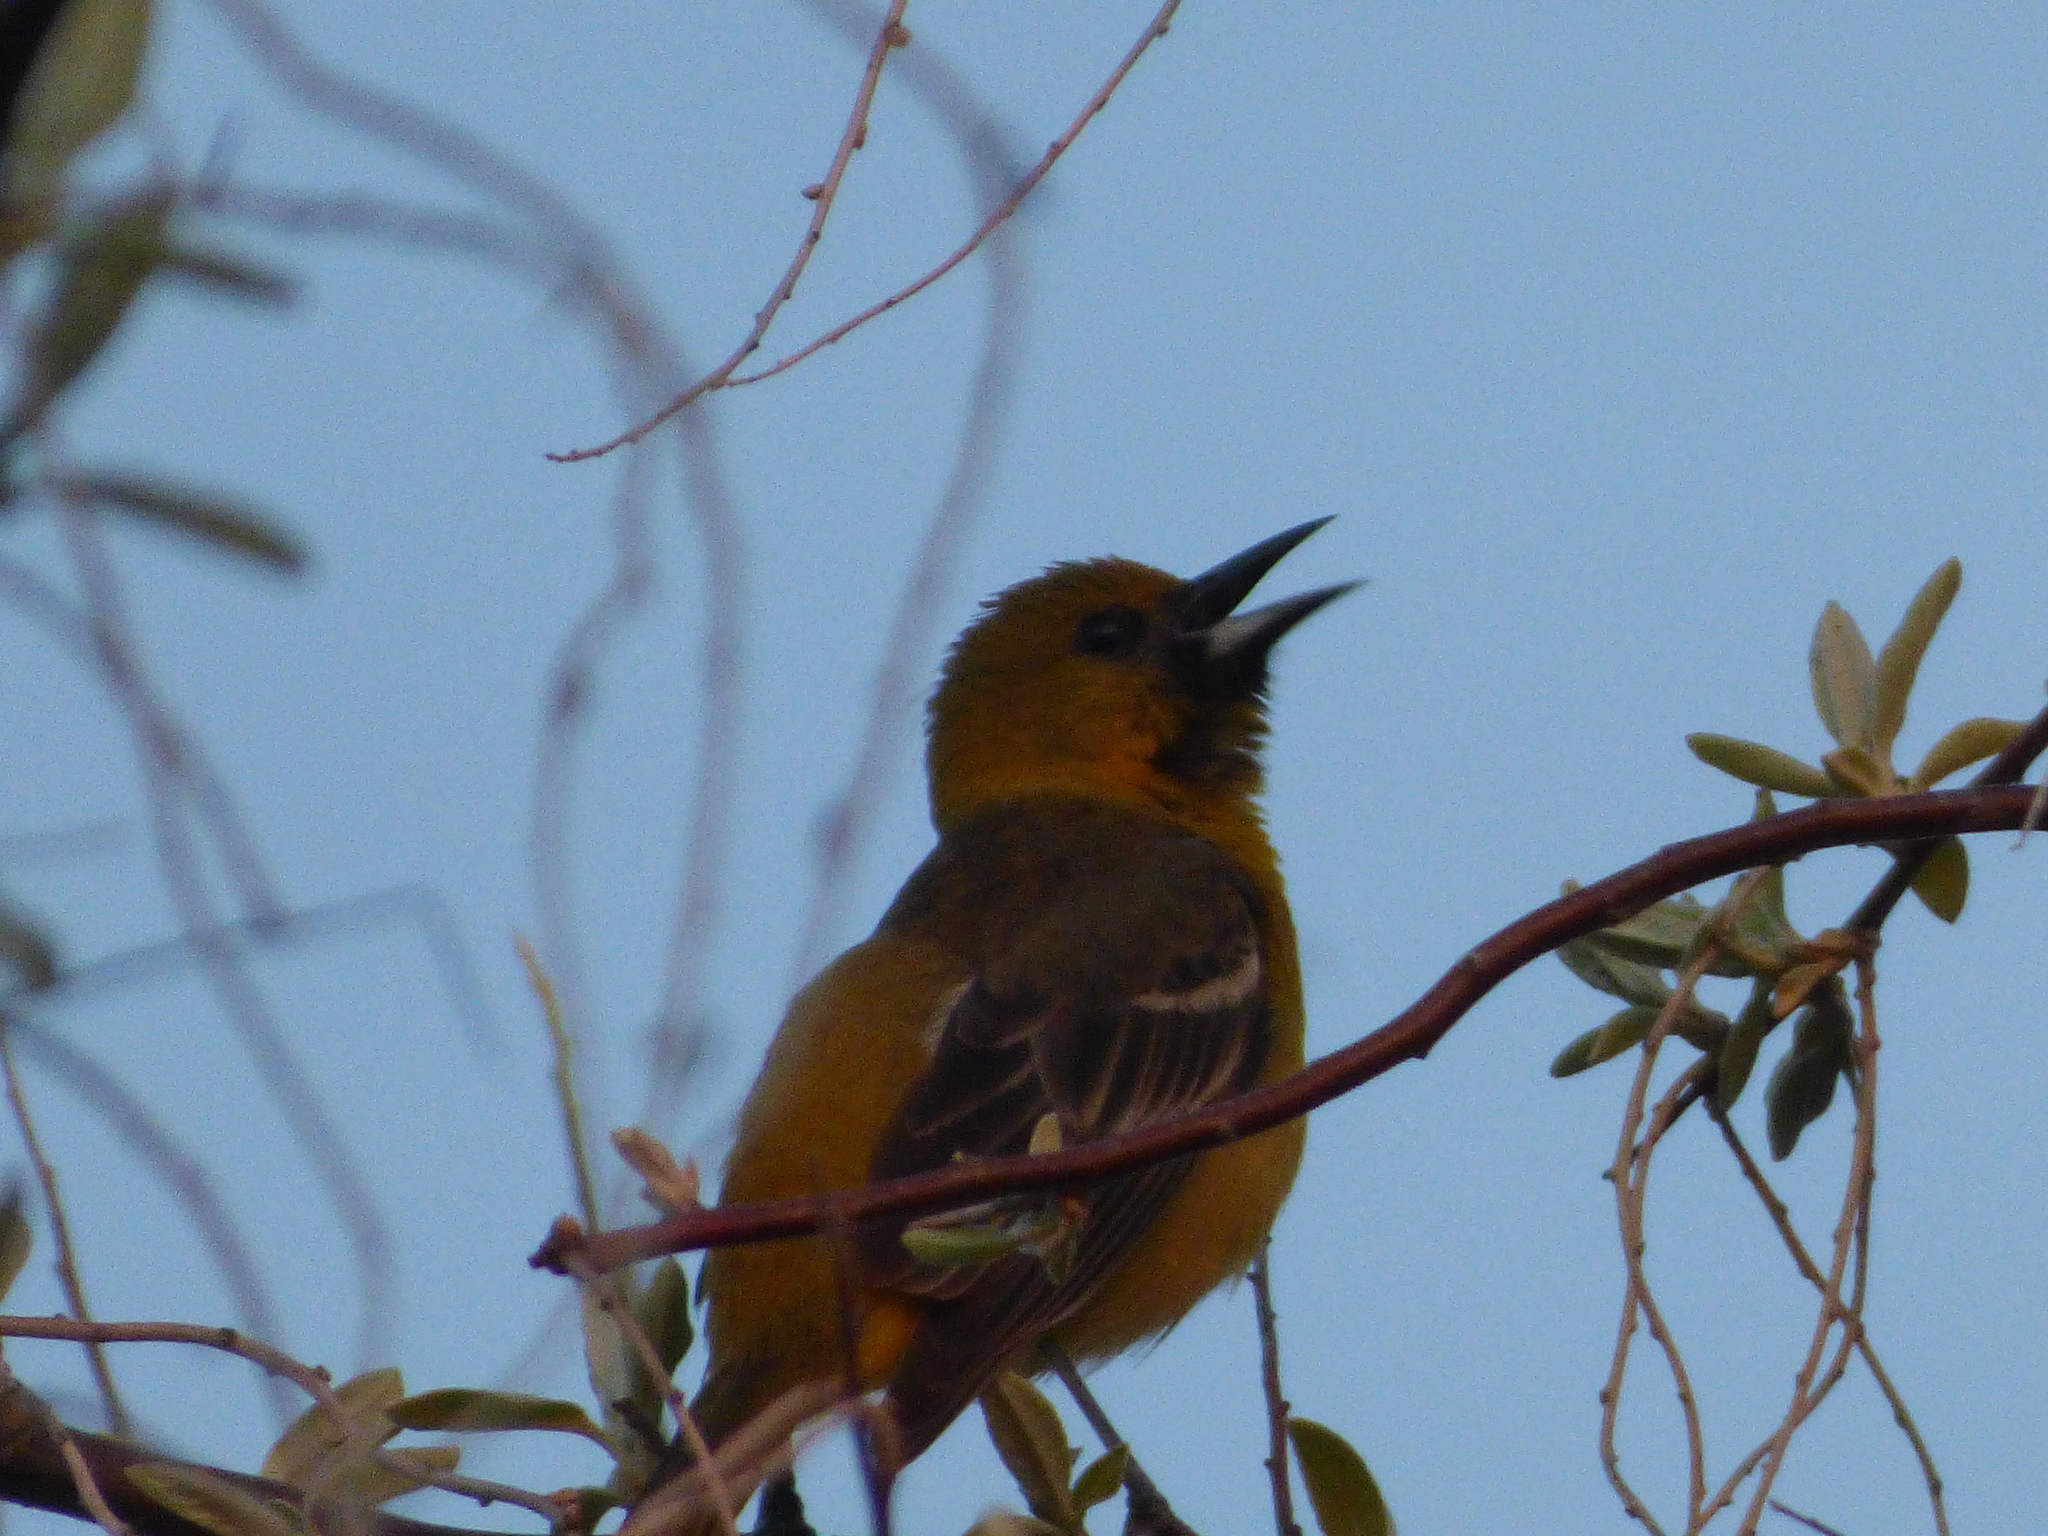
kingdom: Animalia
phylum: Chordata
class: Aves
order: Passeriformes
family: Icteridae
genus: Icterus
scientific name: Icterus spurius
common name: Orchard oriole
